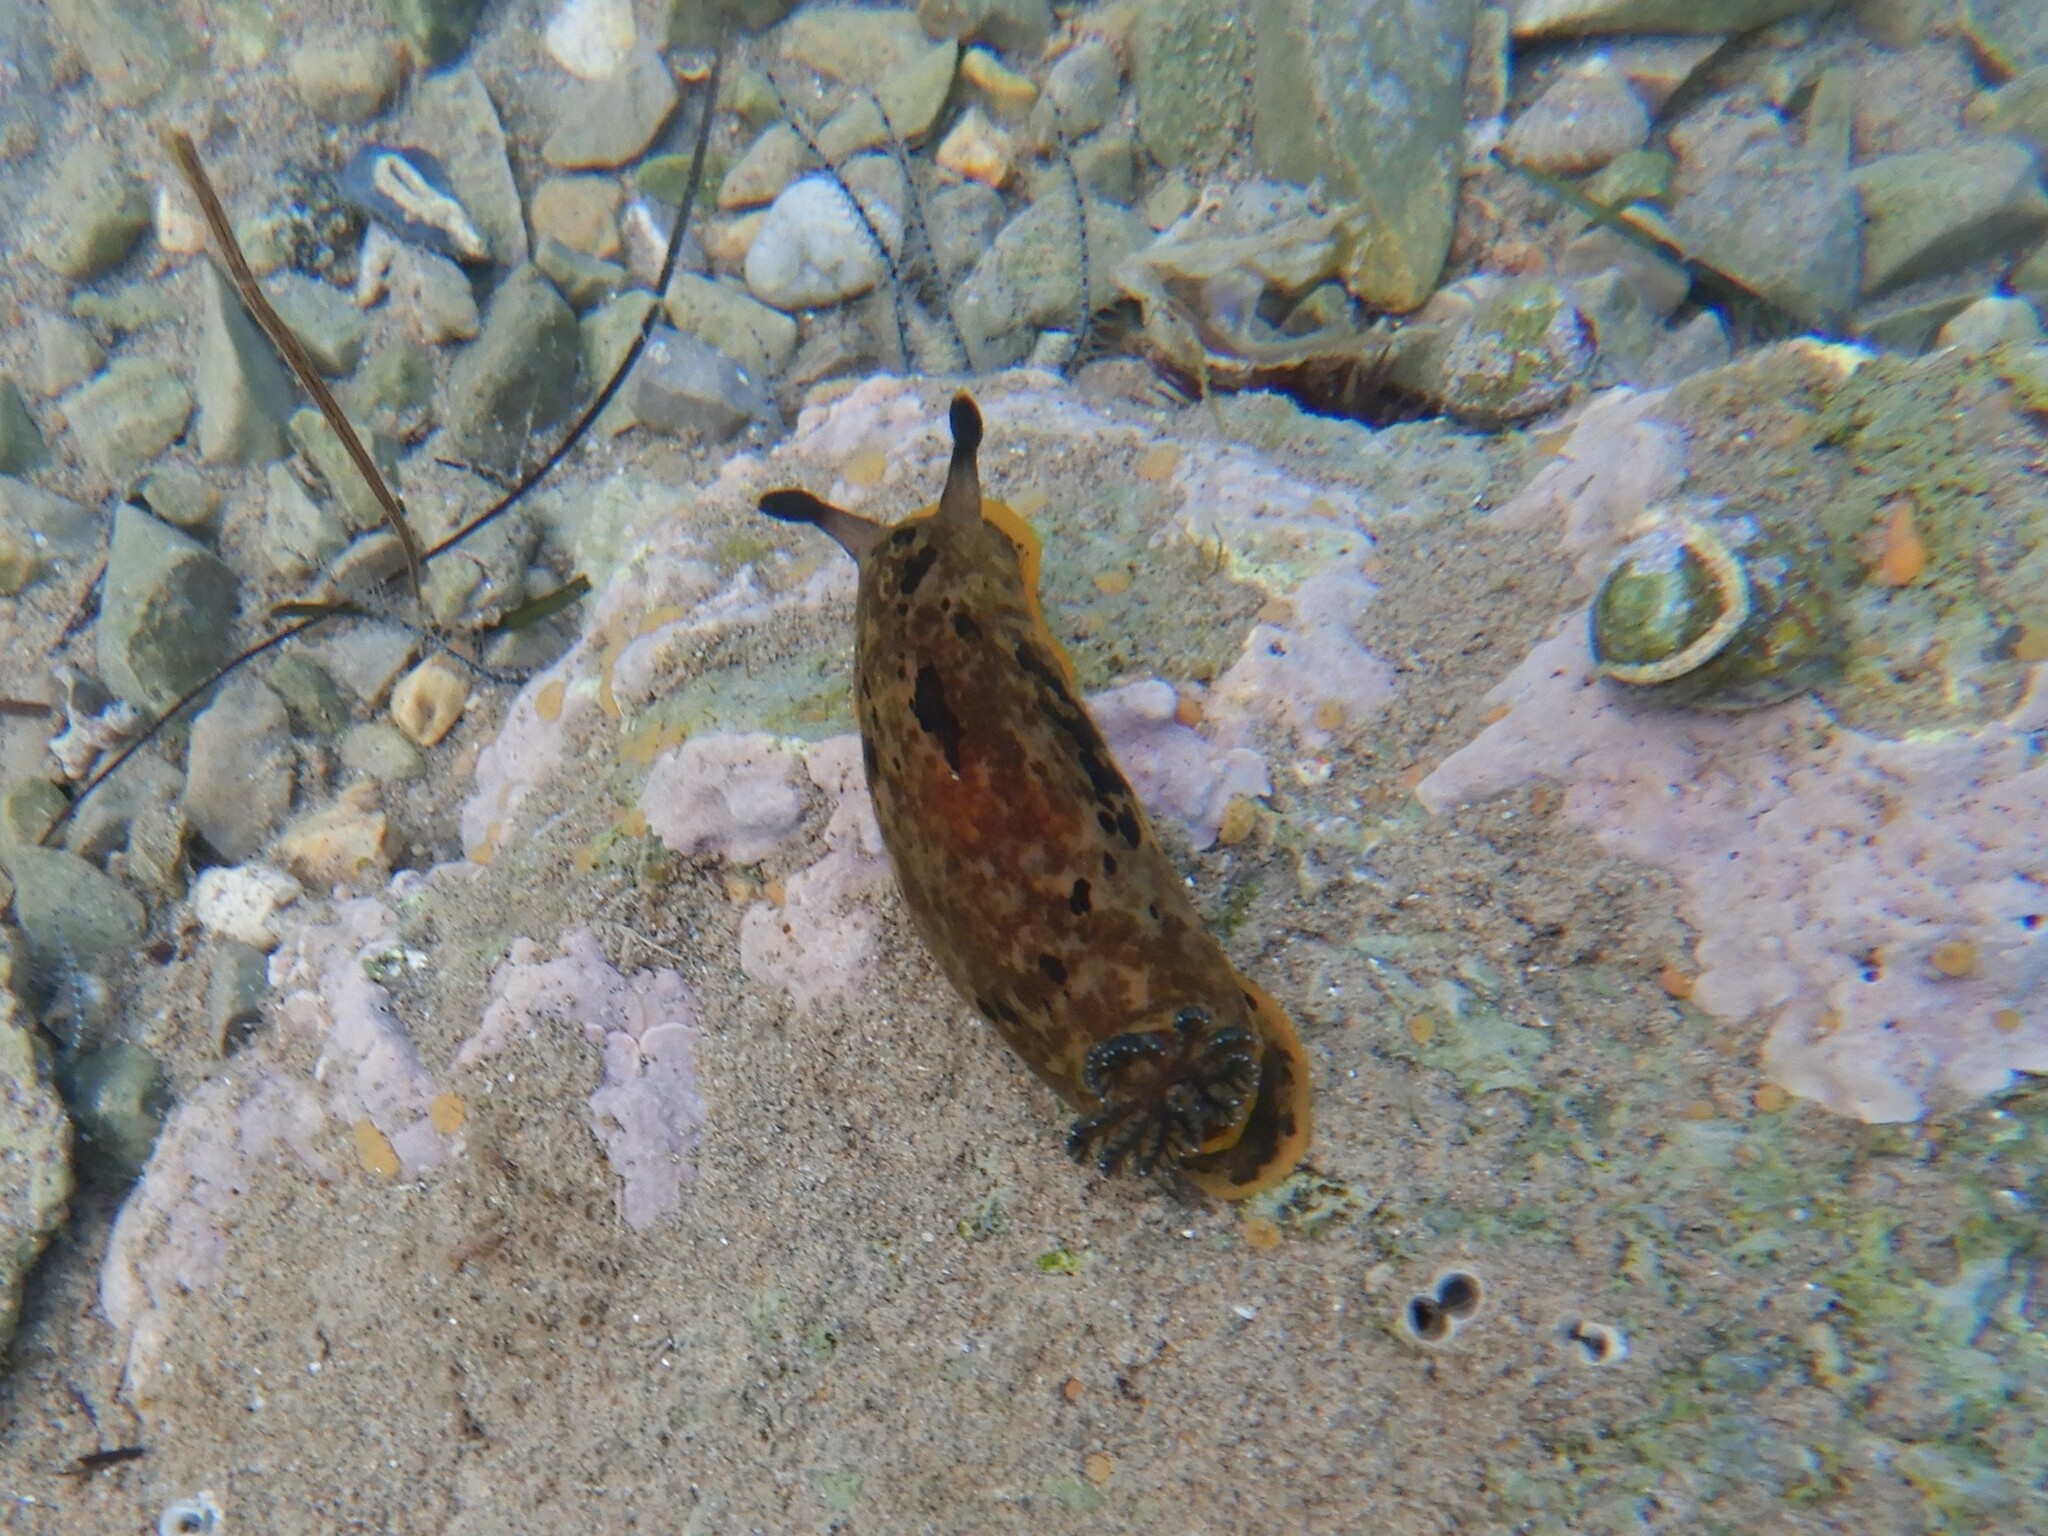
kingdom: Animalia
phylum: Mollusca
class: Gastropoda
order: Nudibranchia
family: Dendrodorididae
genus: Dendrodoris
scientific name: Dendrodoris limbata
